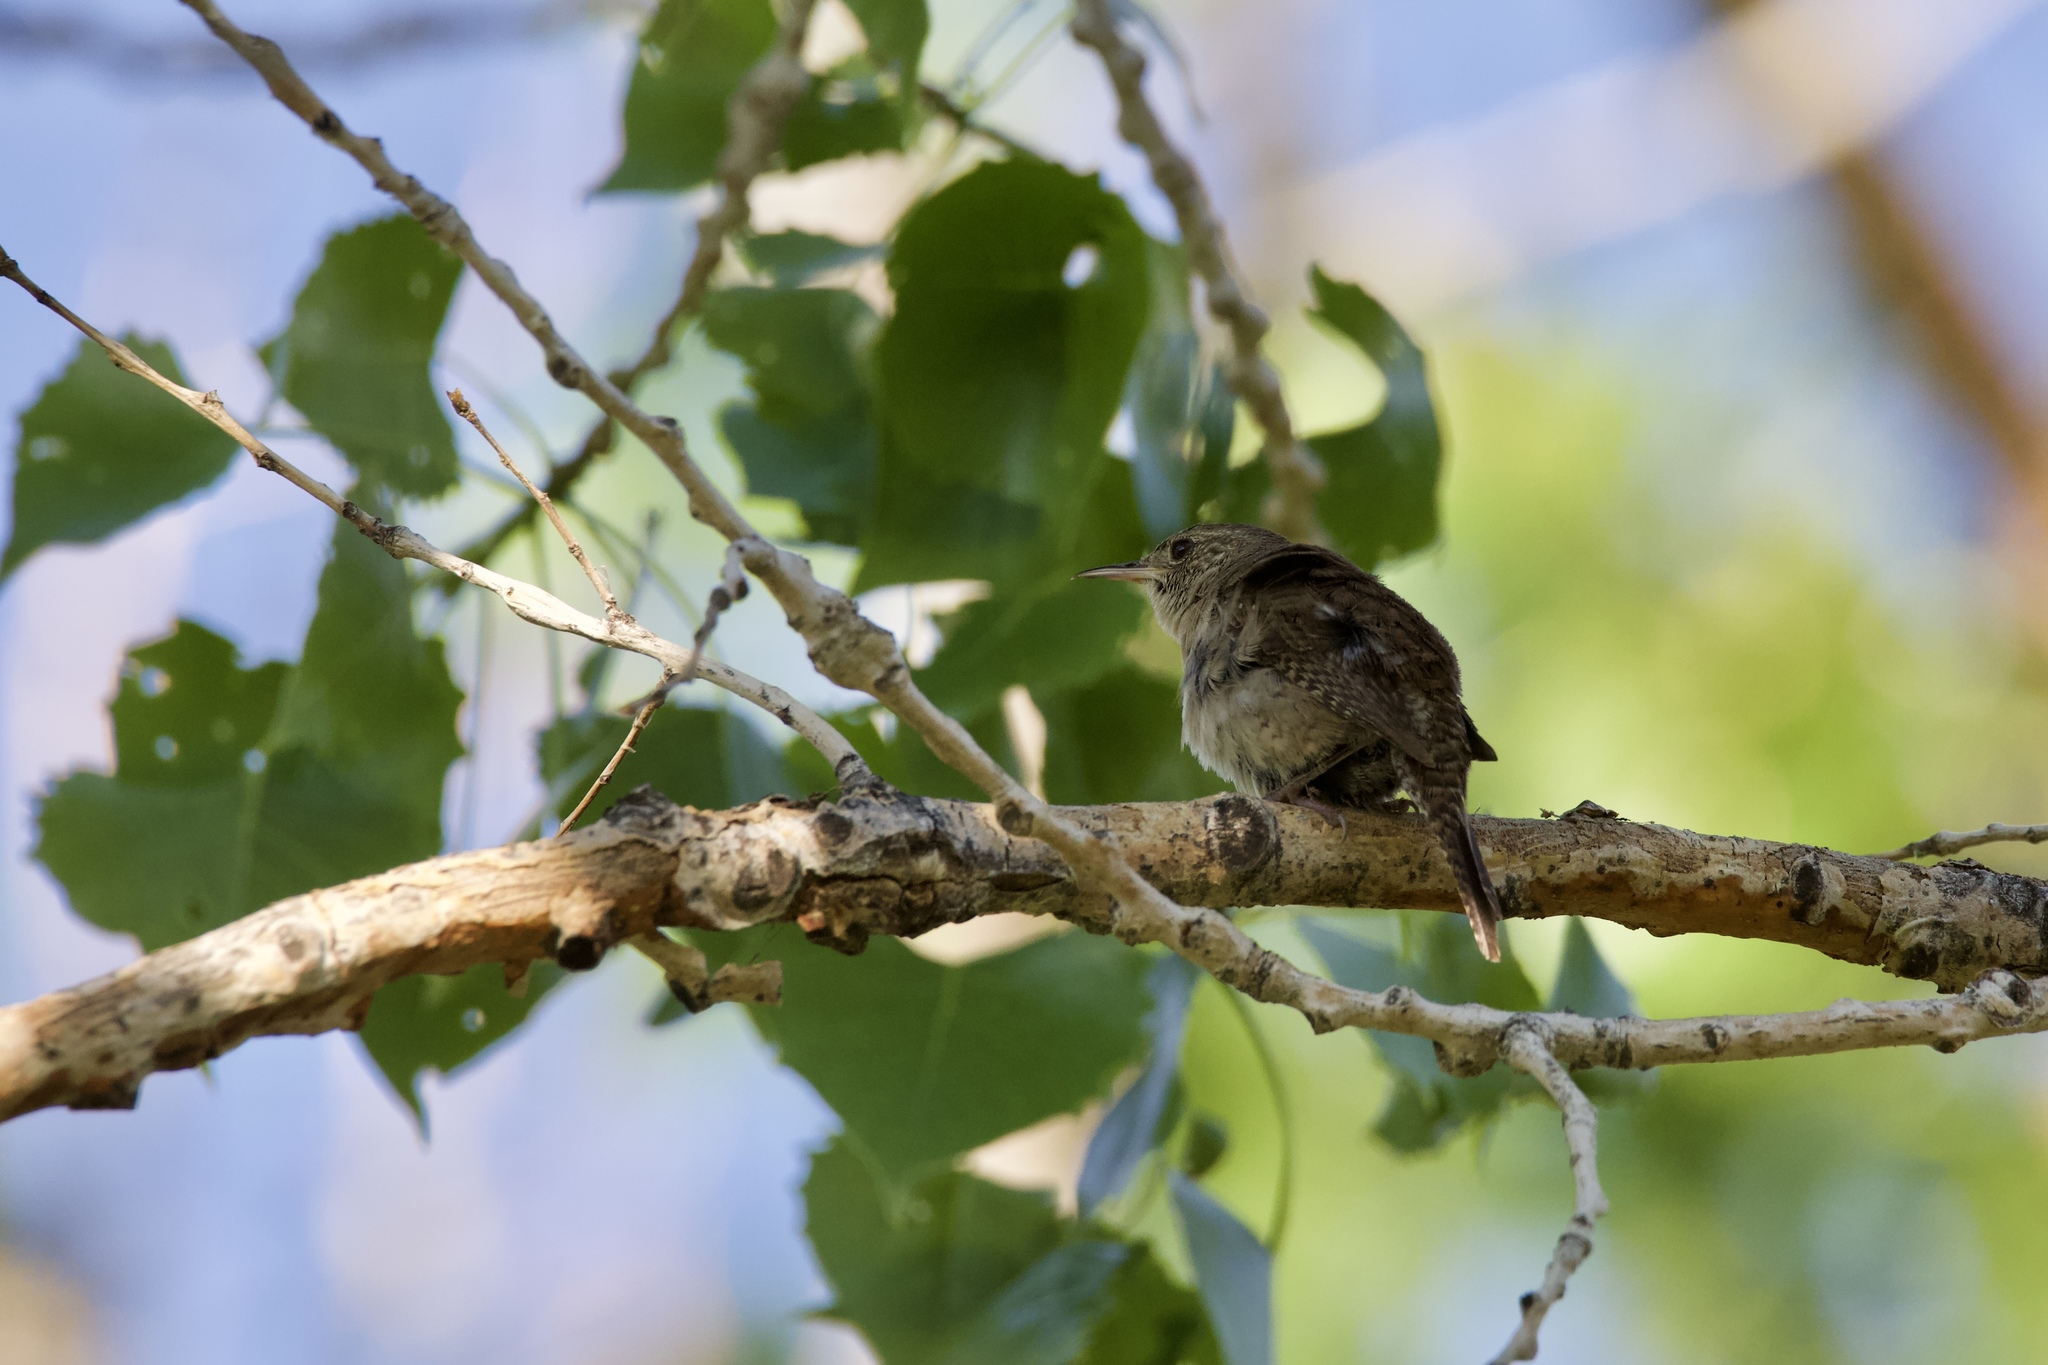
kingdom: Animalia
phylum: Chordata
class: Aves
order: Passeriformes
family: Troglodytidae
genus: Troglodytes
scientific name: Troglodytes aedon
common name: House wren
